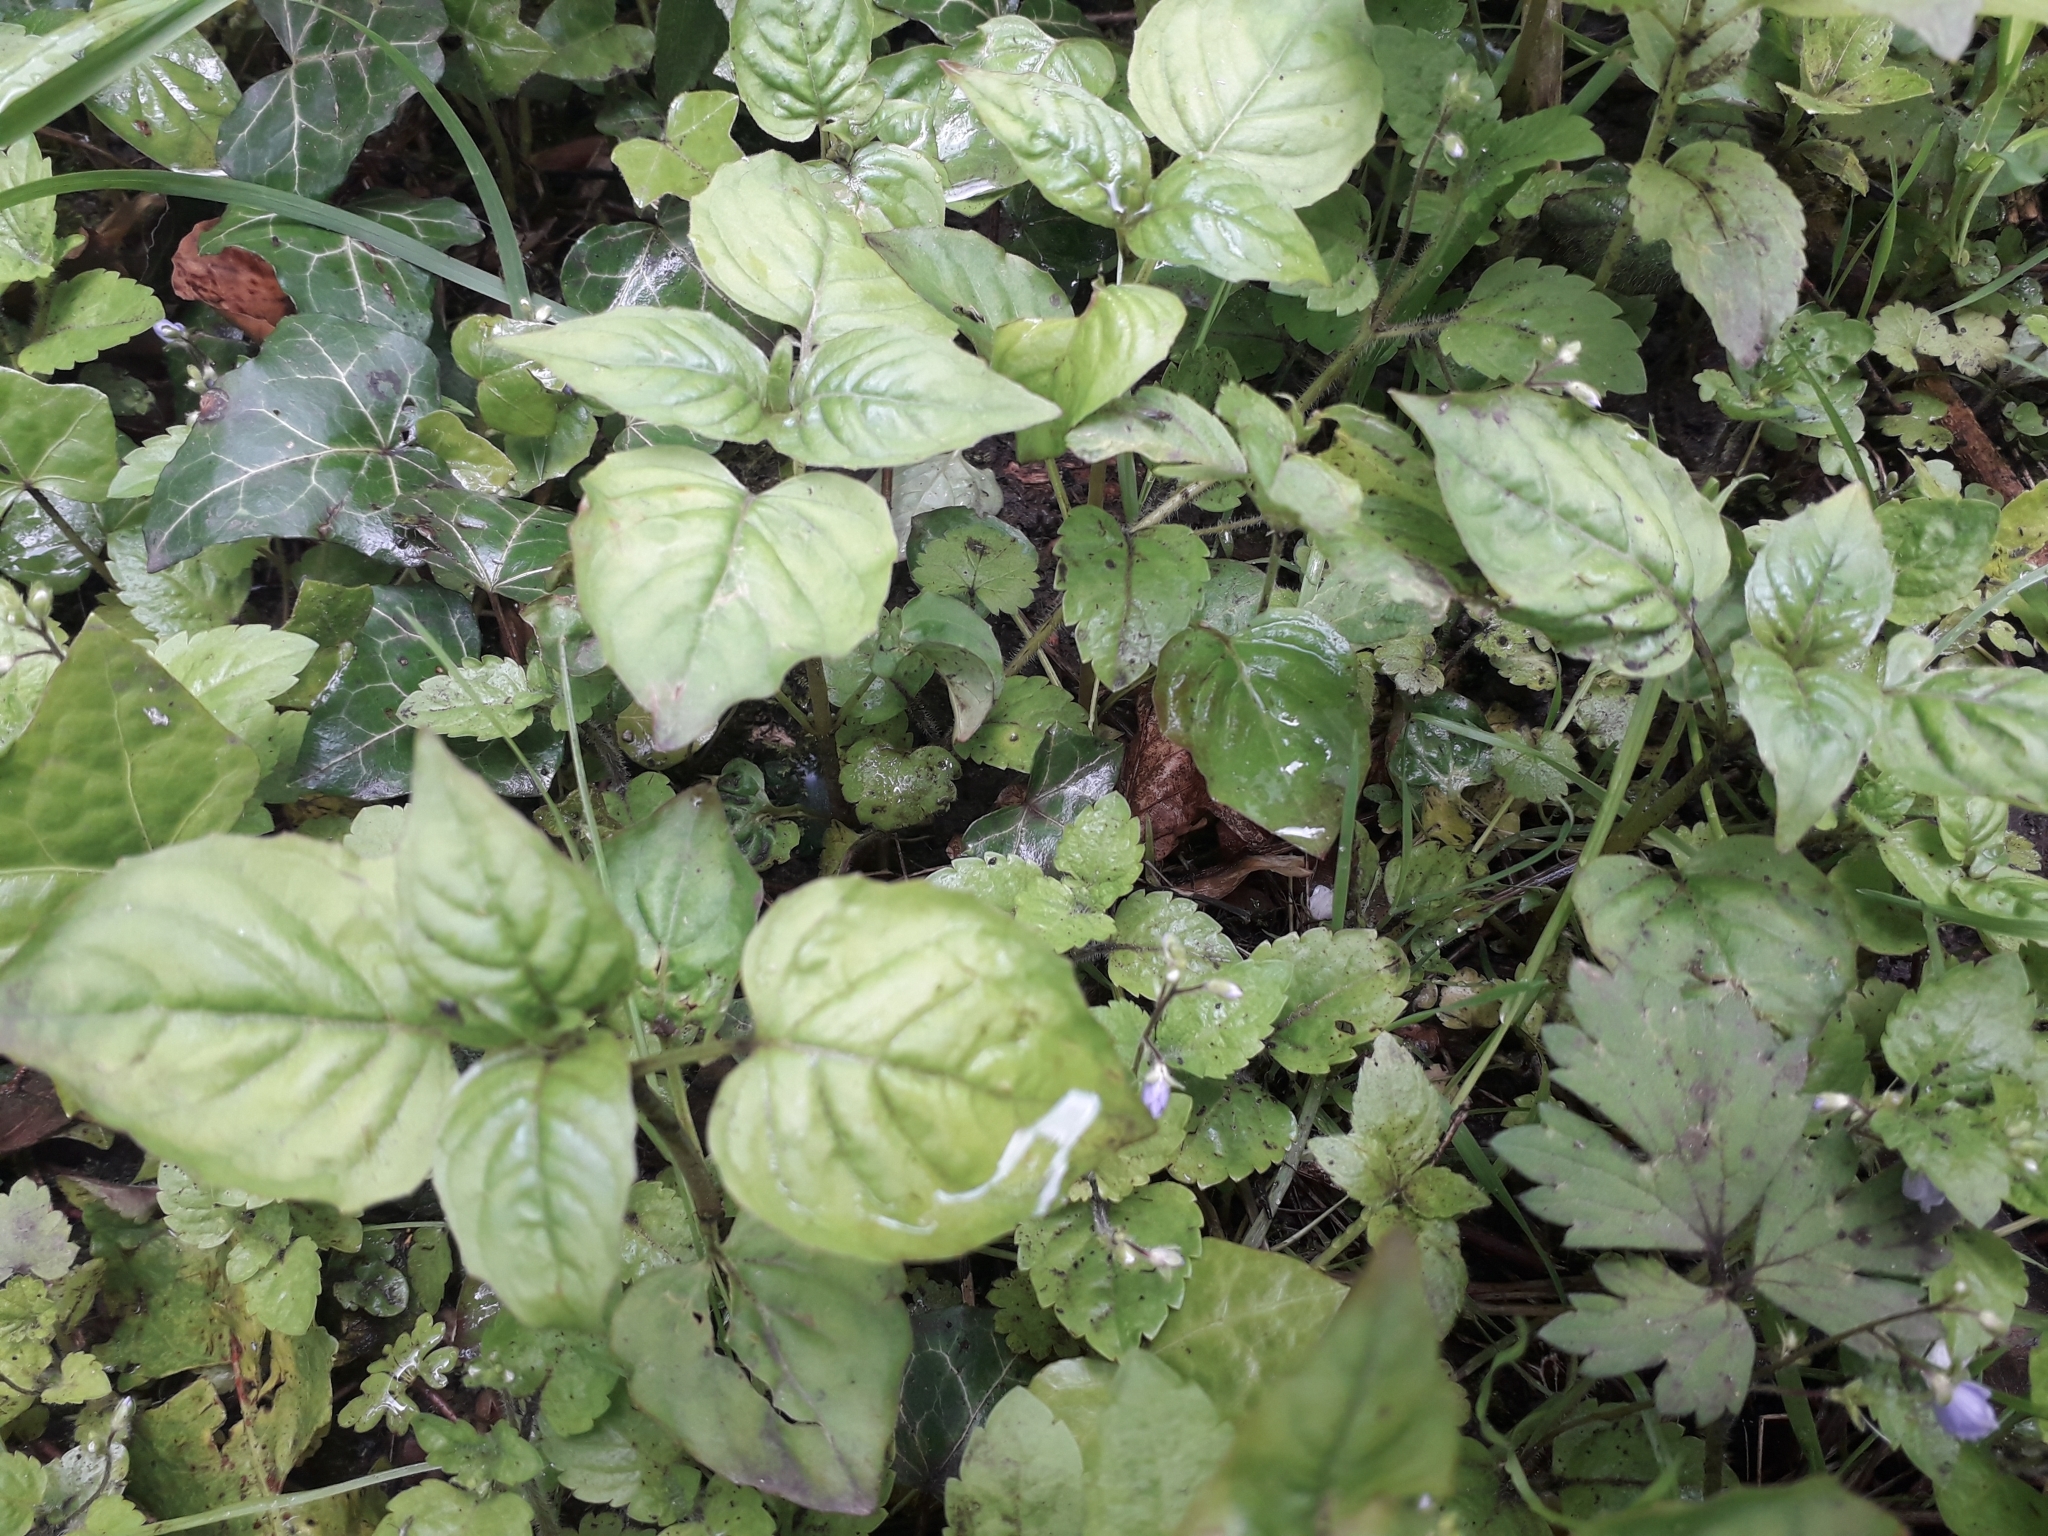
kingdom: Plantae
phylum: Tracheophyta
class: Magnoliopsida
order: Myrtales
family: Onagraceae
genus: Circaea
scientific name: Circaea lutetiana
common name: Enchanter's-nightshade
